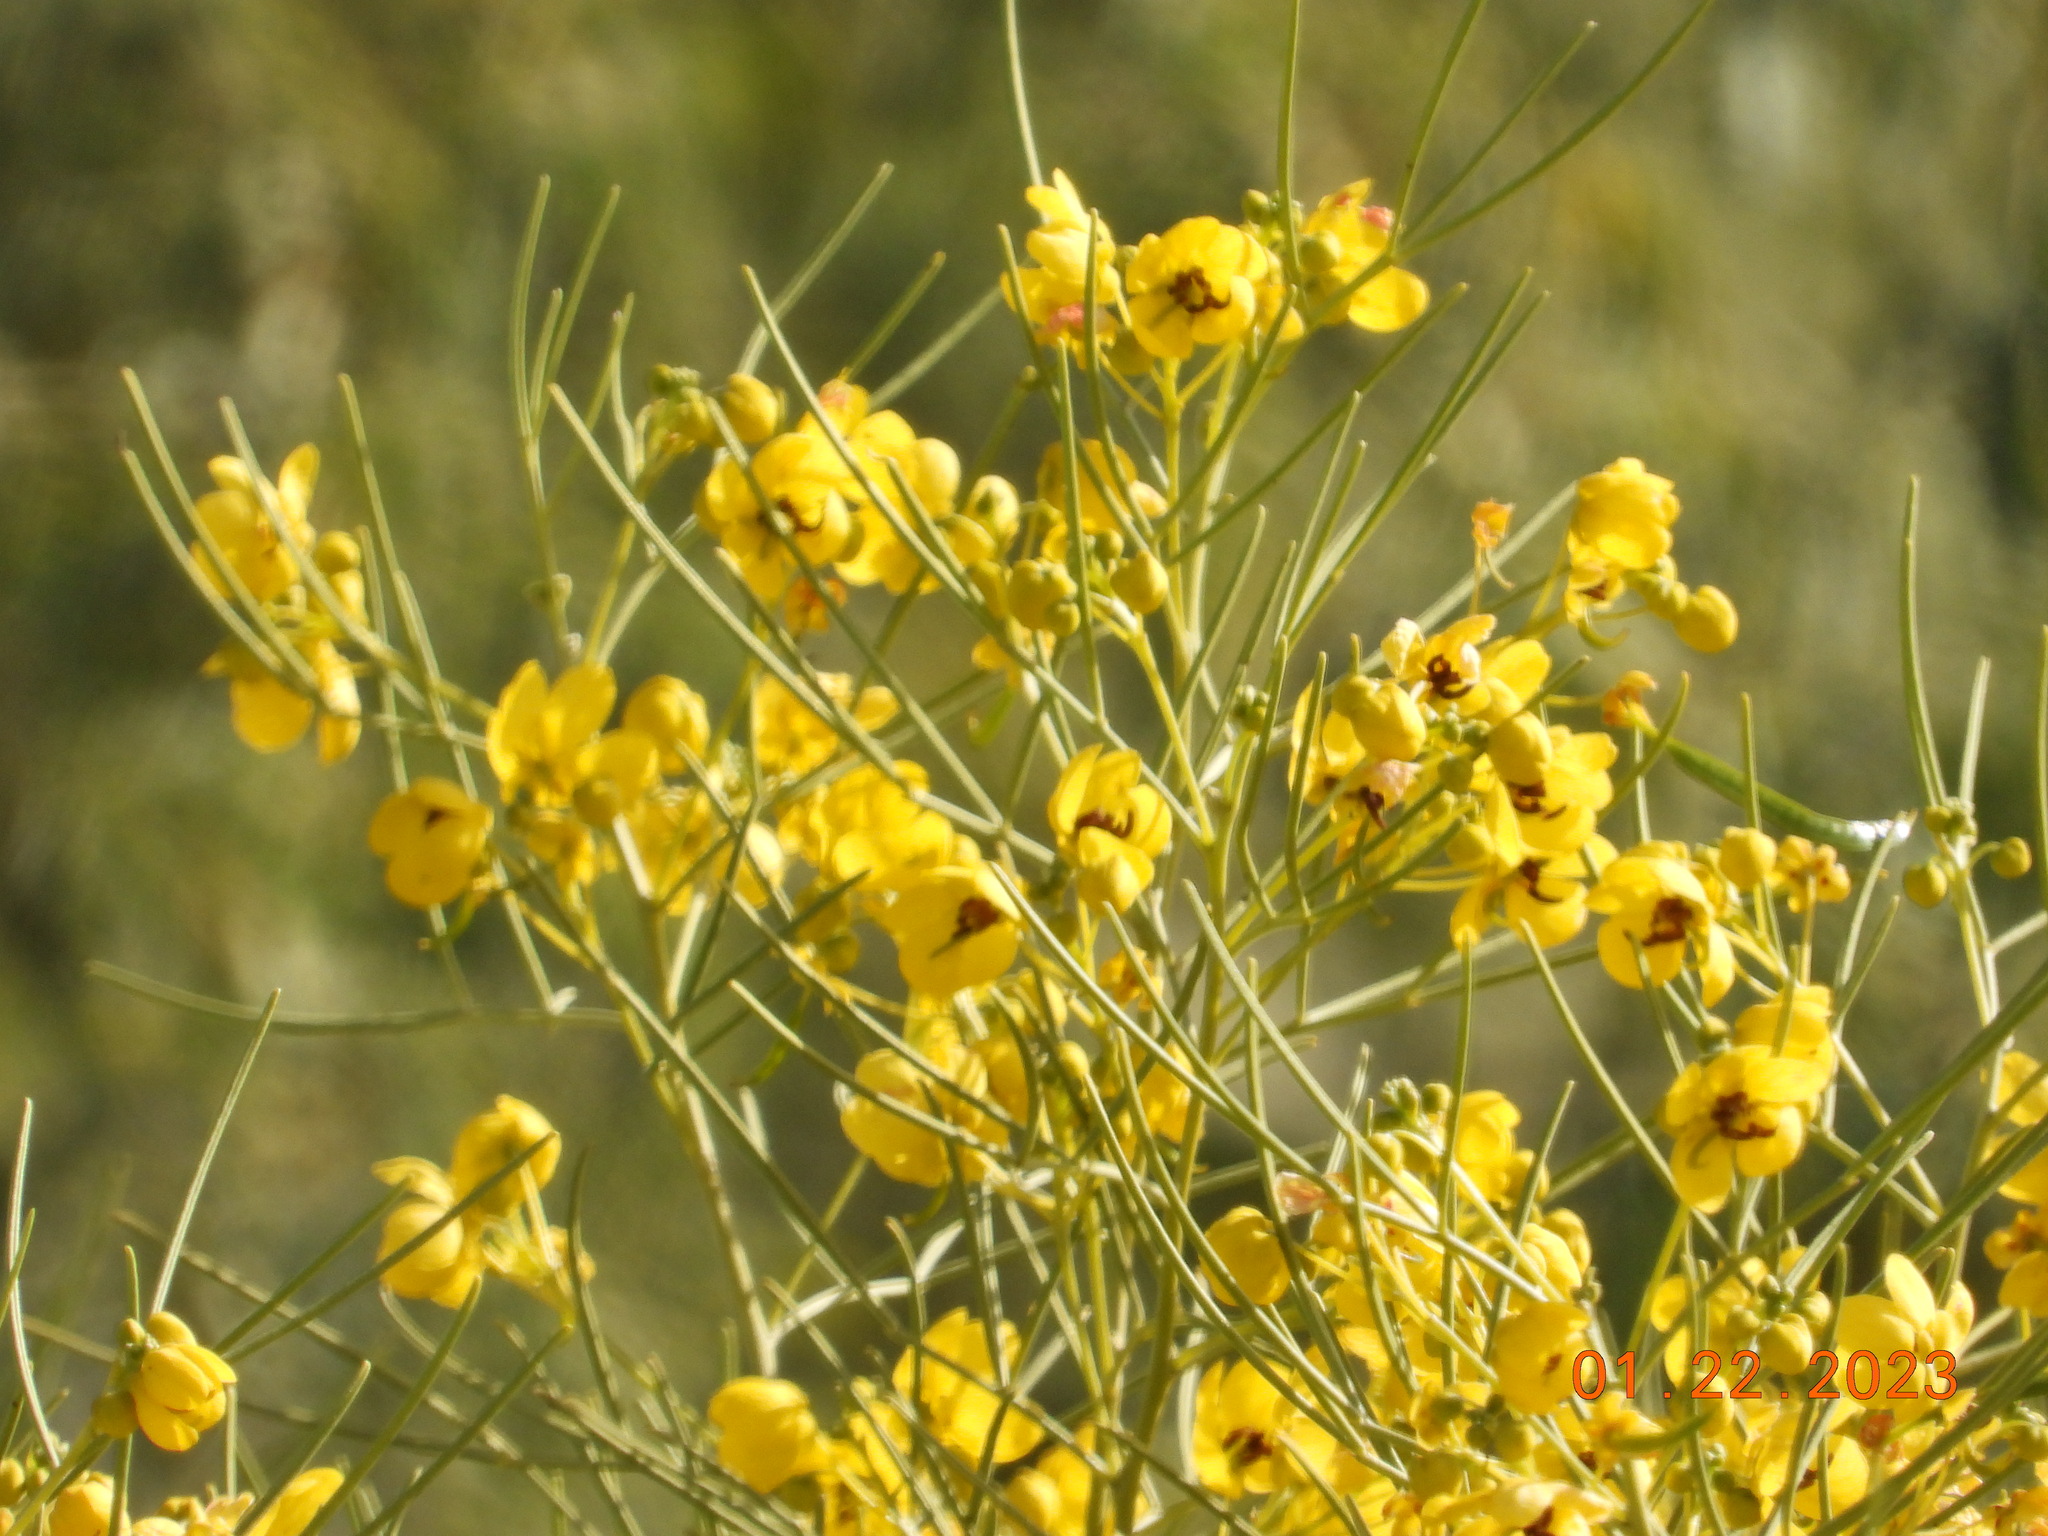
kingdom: Plantae
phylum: Tracheophyta
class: Magnoliopsida
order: Fabales
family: Fabaceae
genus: Senna
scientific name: Senna artemisioides
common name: Burnt-leaved acacia
